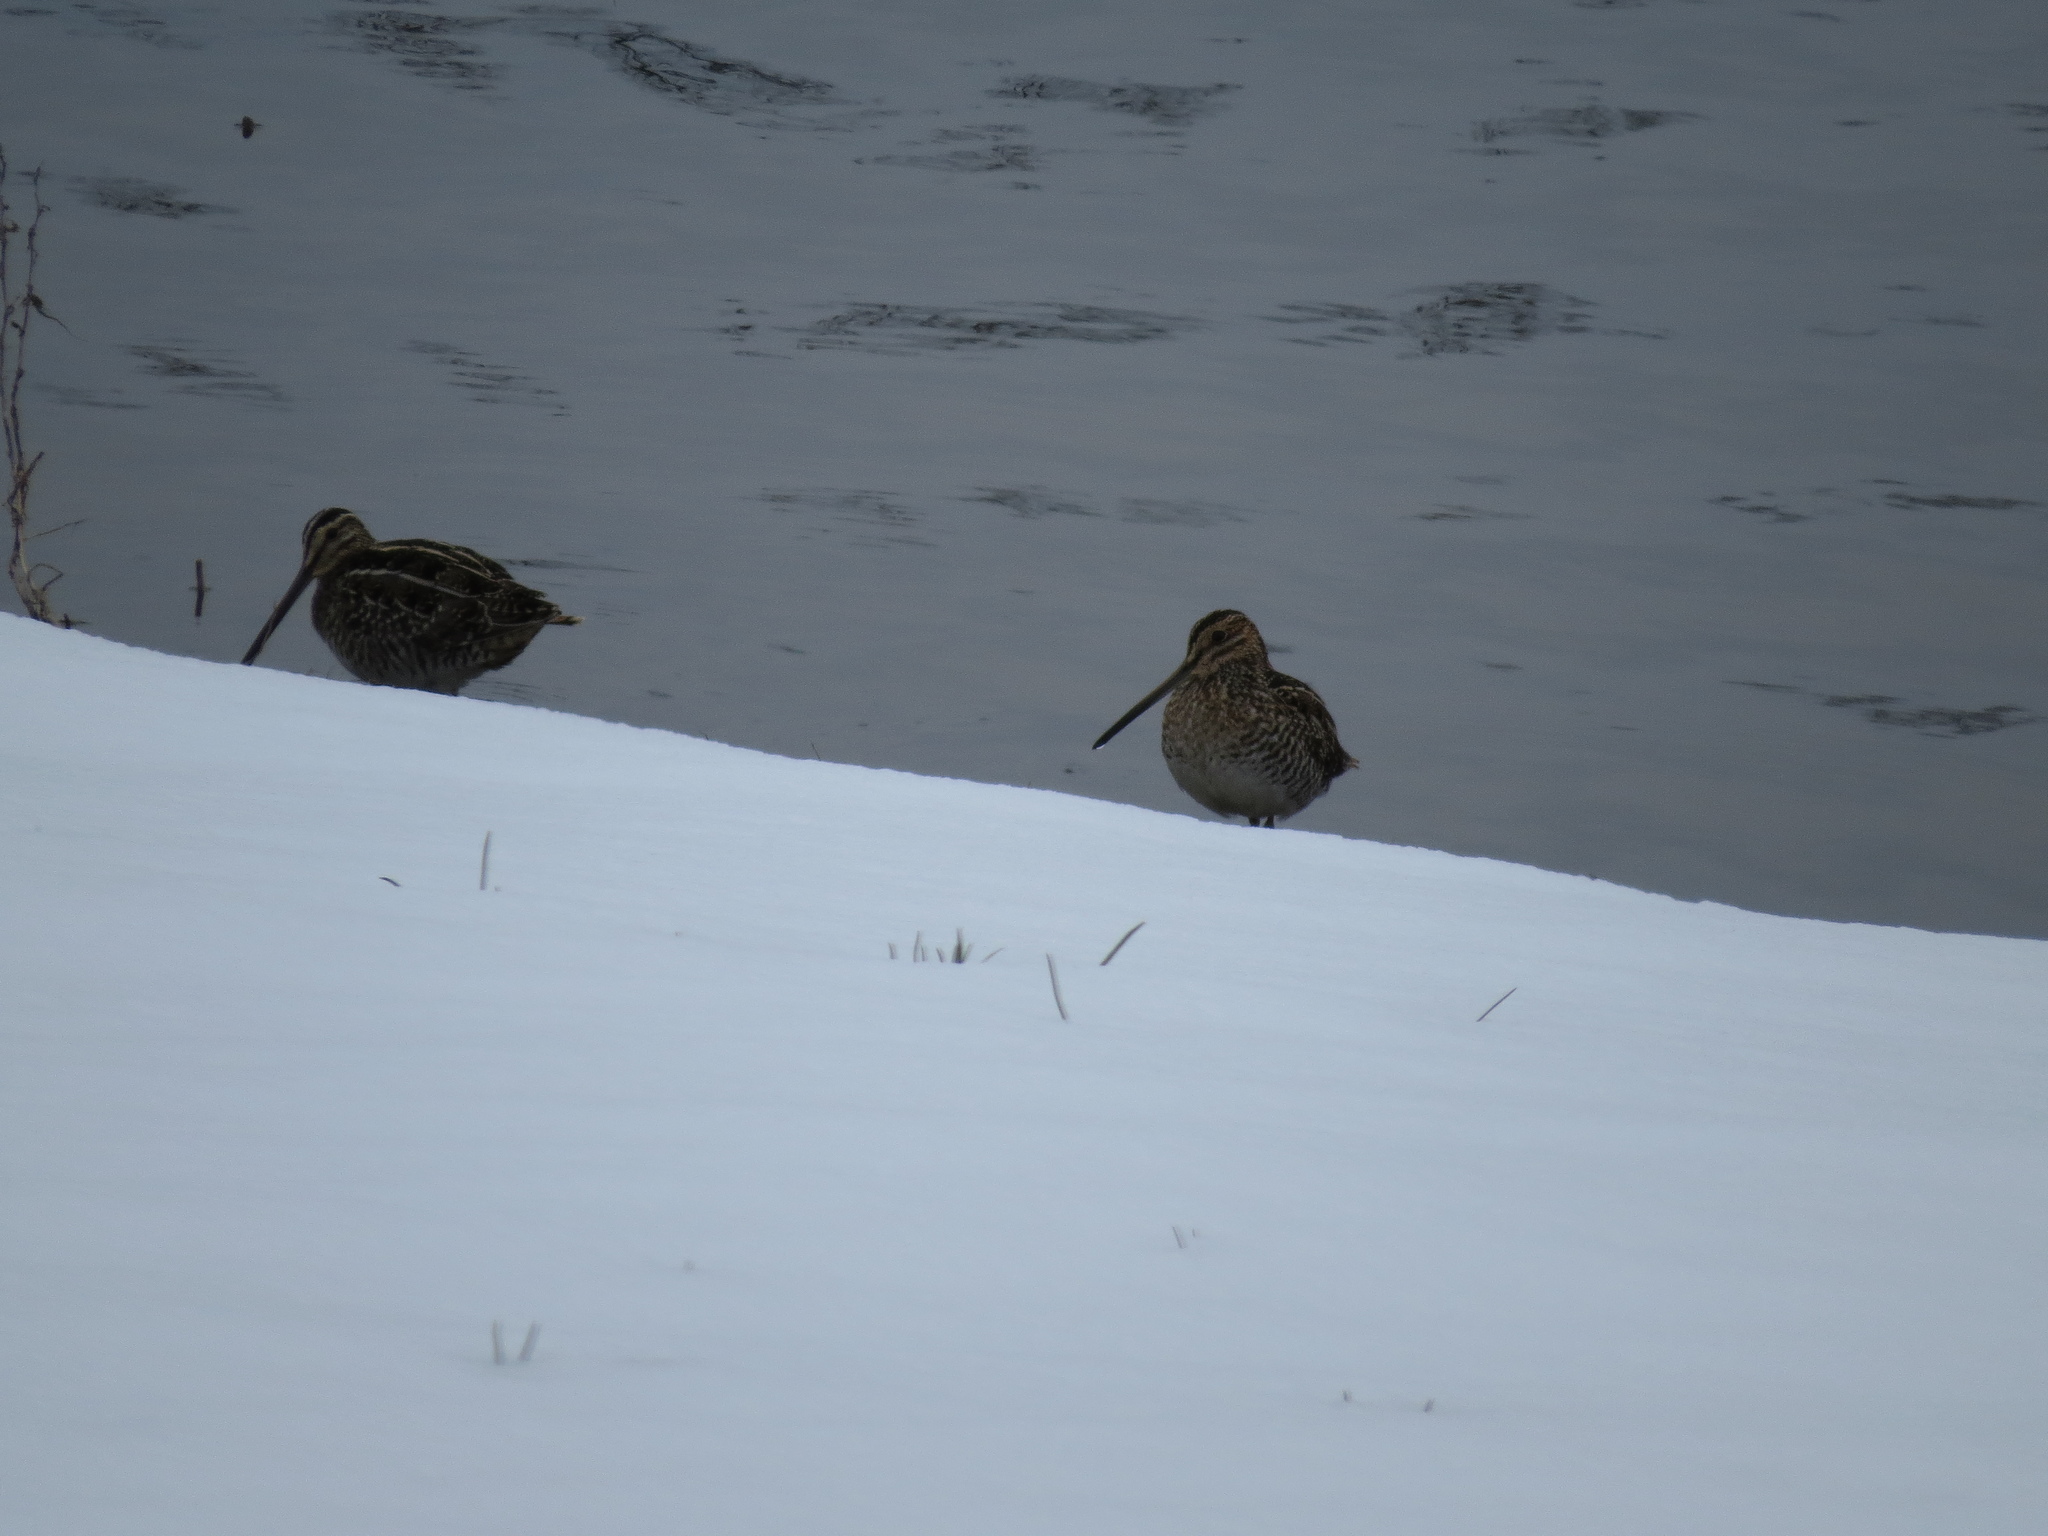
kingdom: Animalia
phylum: Chordata
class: Aves
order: Charadriiformes
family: Scolopacidae
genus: Gallinago
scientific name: Gallinago delicata
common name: Wilson's snipe
